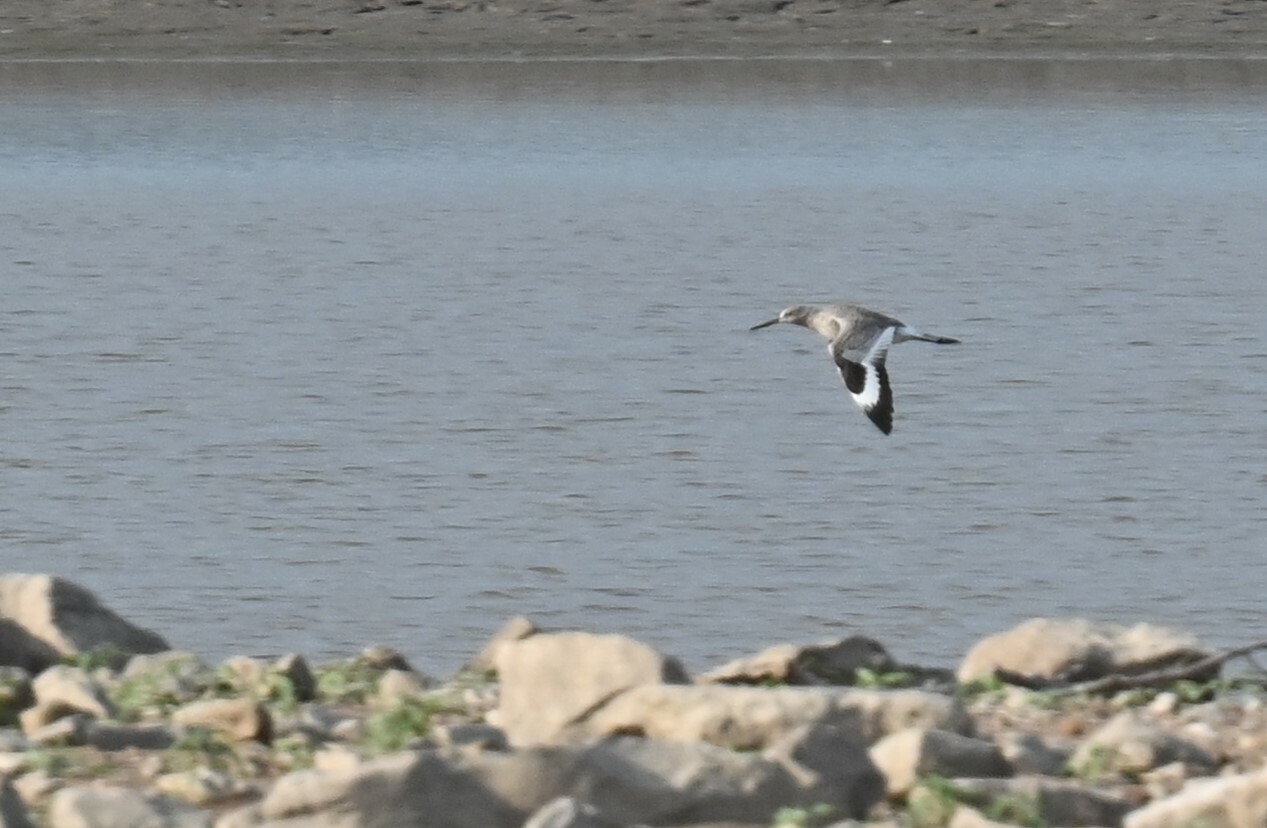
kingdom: Animalia
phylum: Chordata
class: Aves
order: Charadriiformes
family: Scolopacidae
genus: Tringa
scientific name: Tringa semipalmata
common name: Willet
